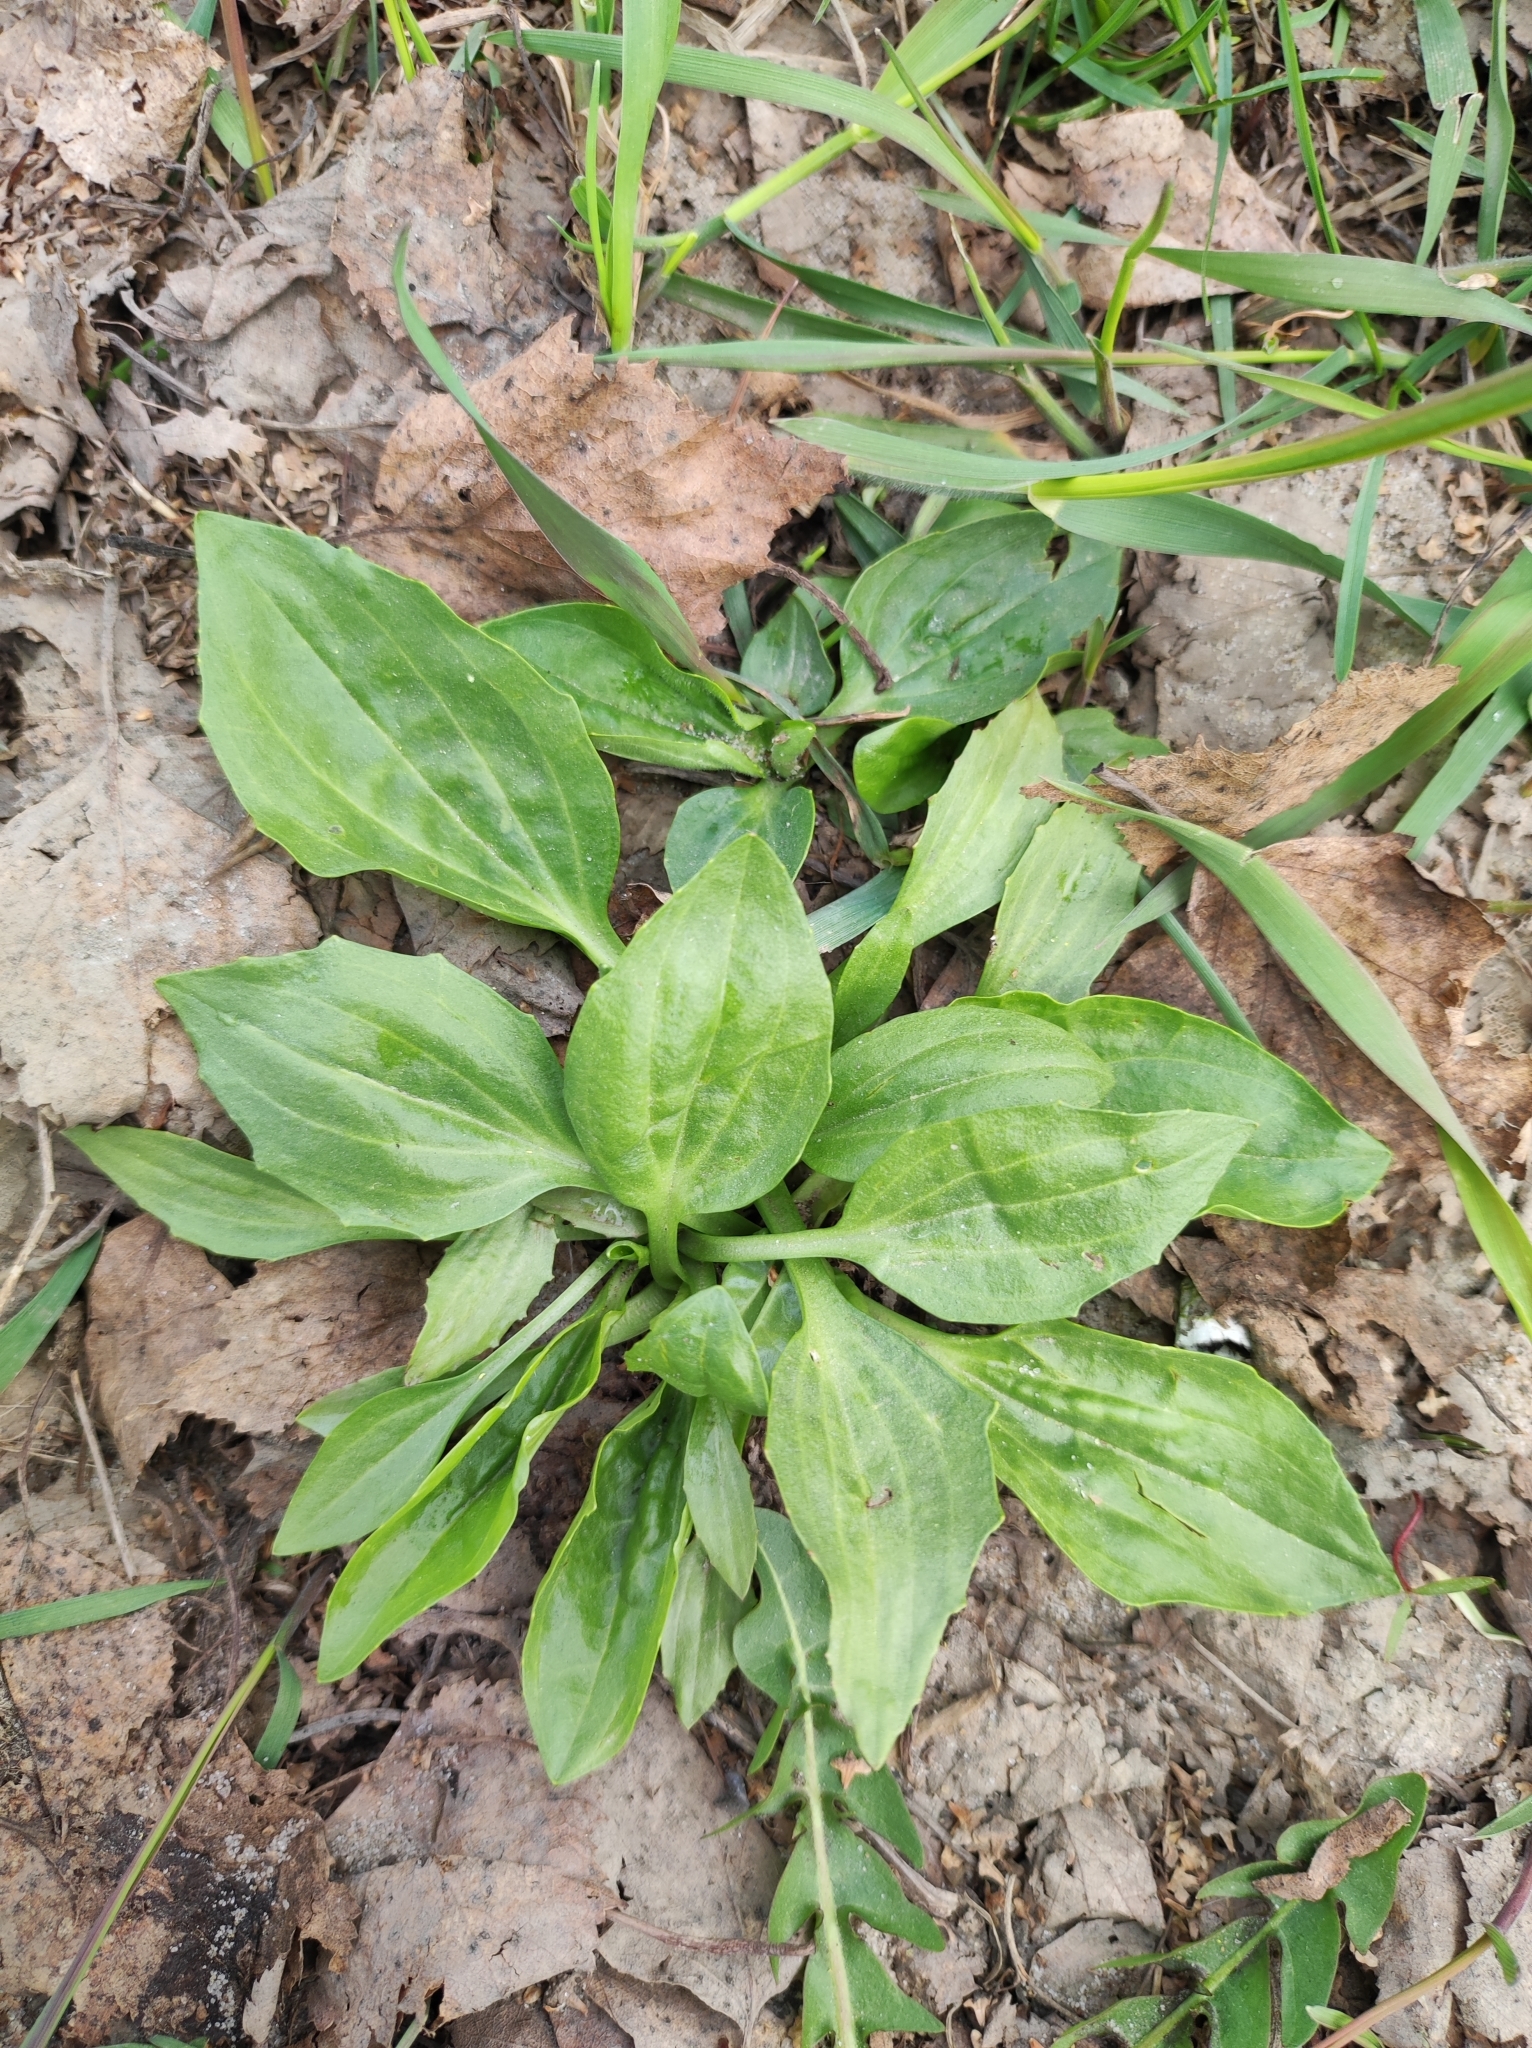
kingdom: Plantae
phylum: Tracheophyta
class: Magnoliopsida
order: Lamiales
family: Plantaginaceae
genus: Plantago
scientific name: Plantago major
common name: Common plantain
